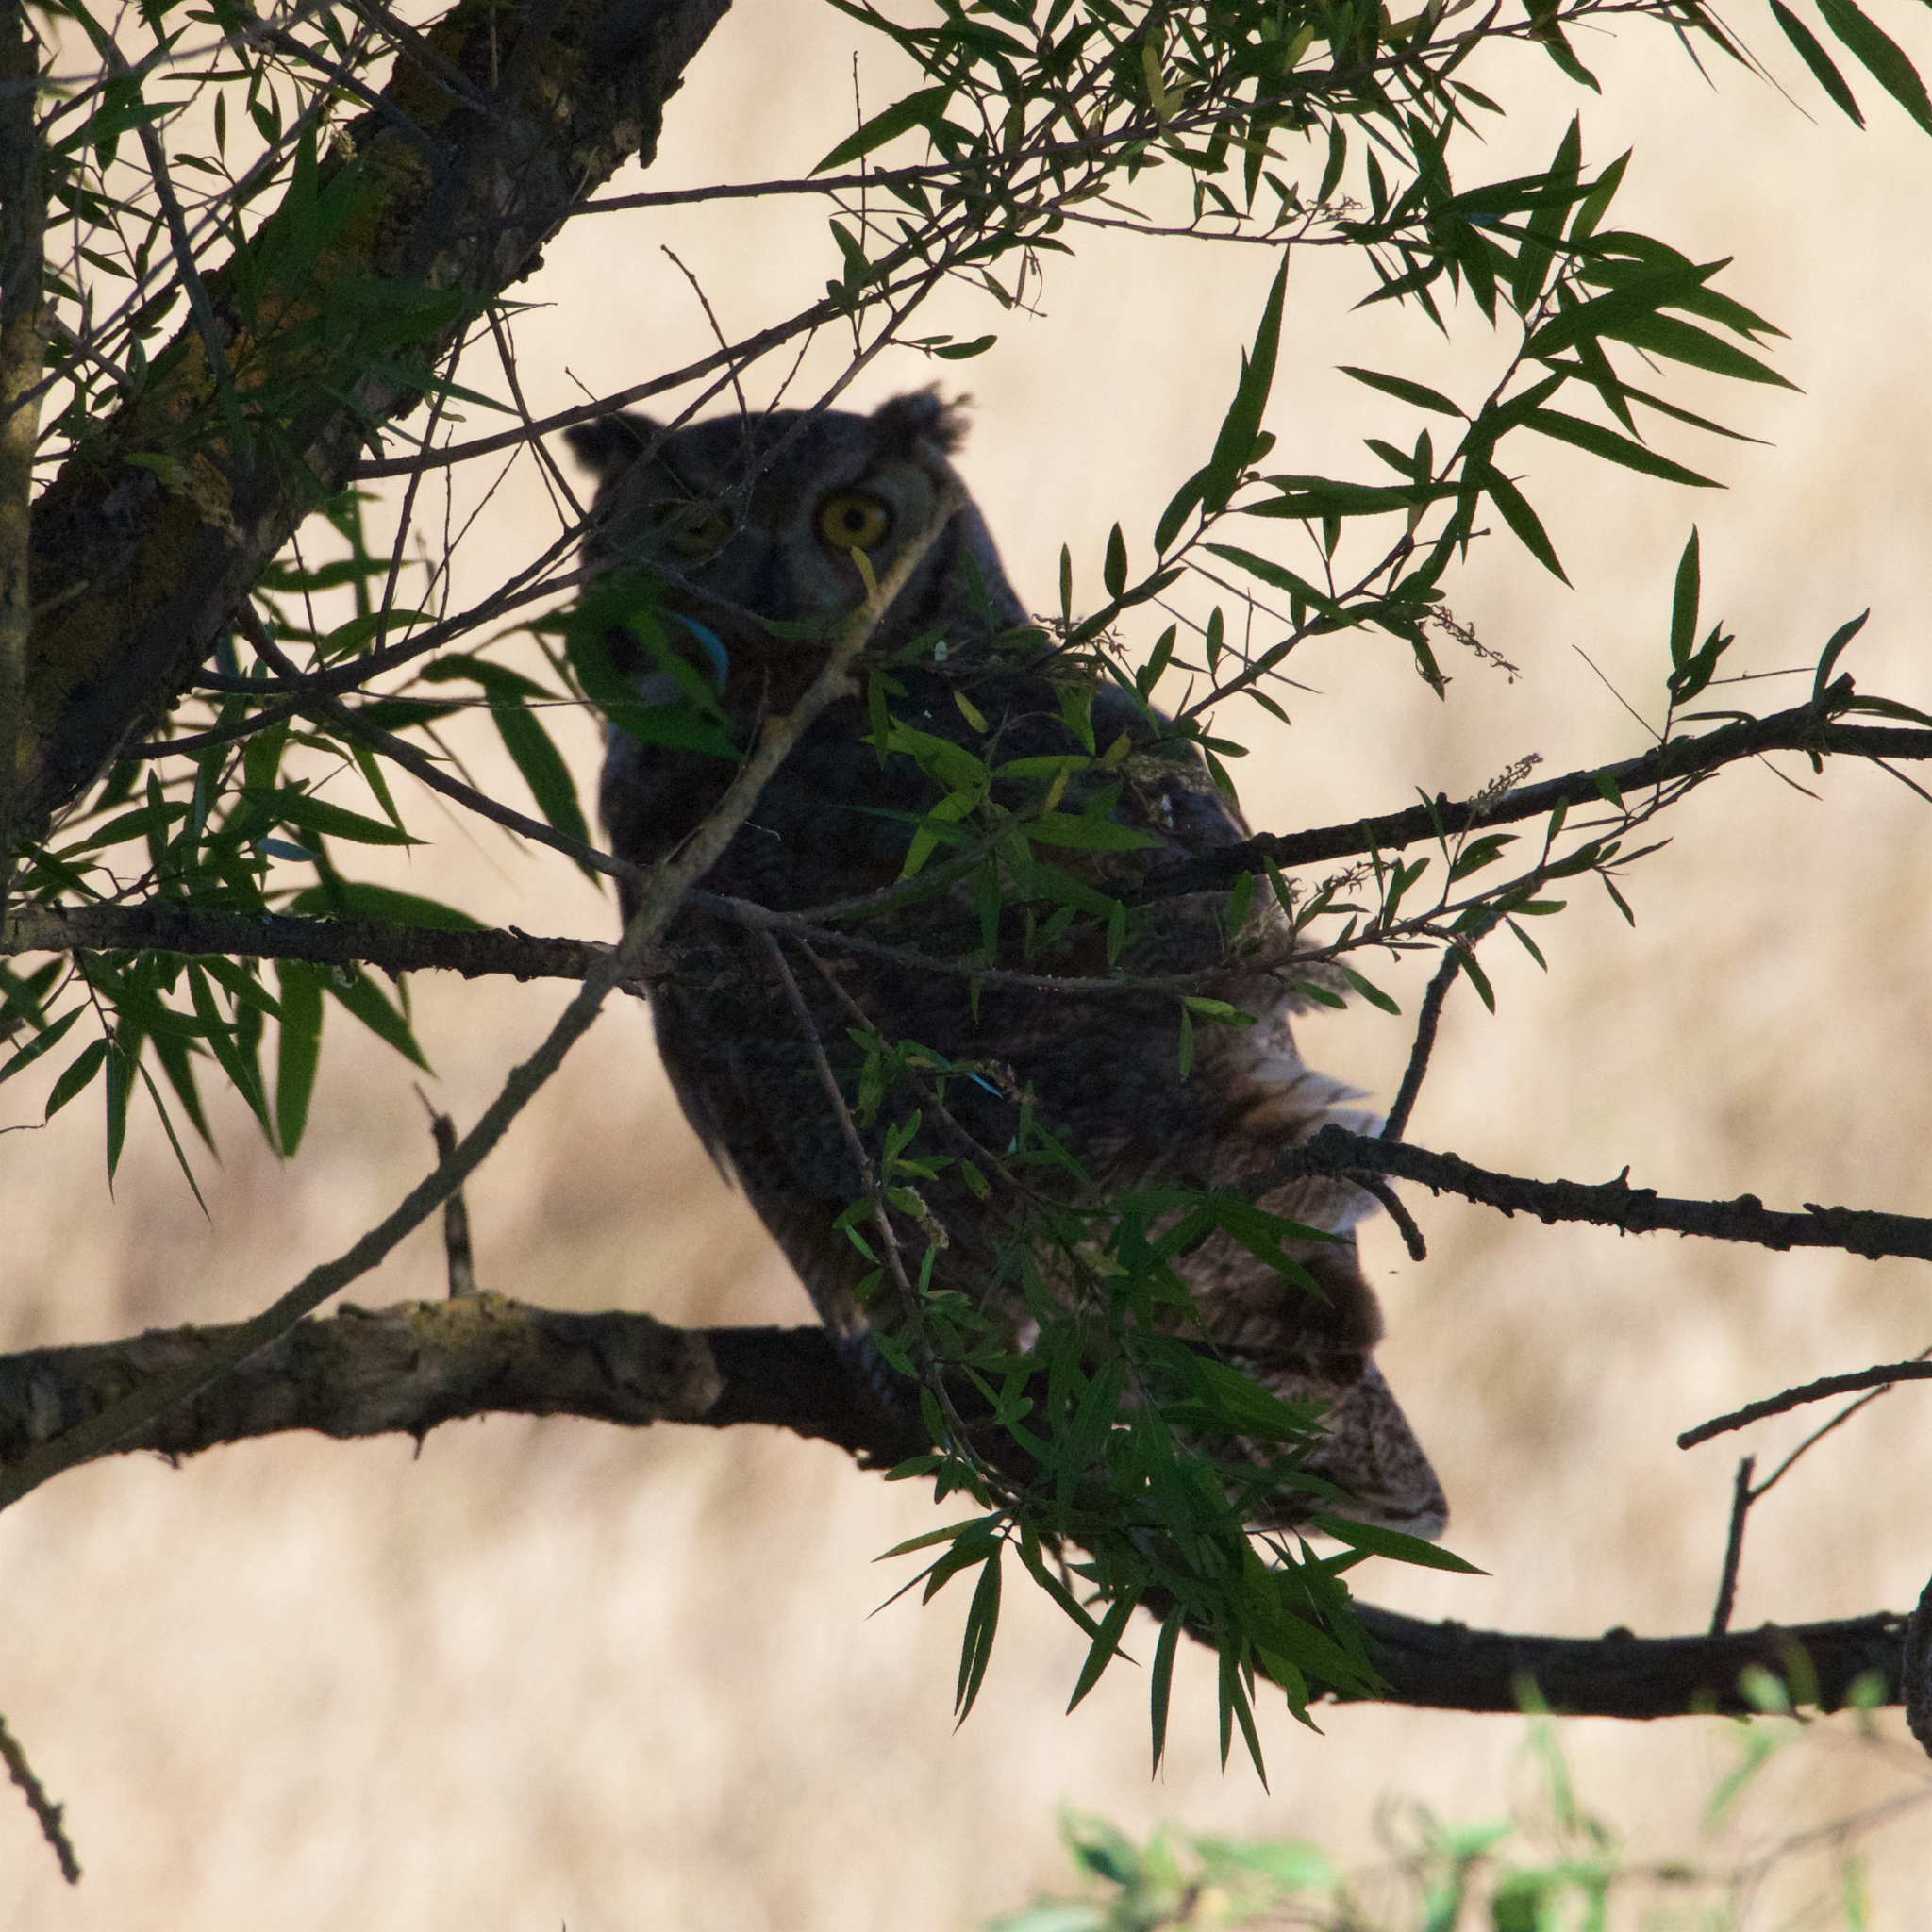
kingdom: Animalia
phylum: Chordata
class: Aves
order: Strigiformes
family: Strigidae
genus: Bubo
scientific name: Bubo virginianus
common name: Great horned owl
